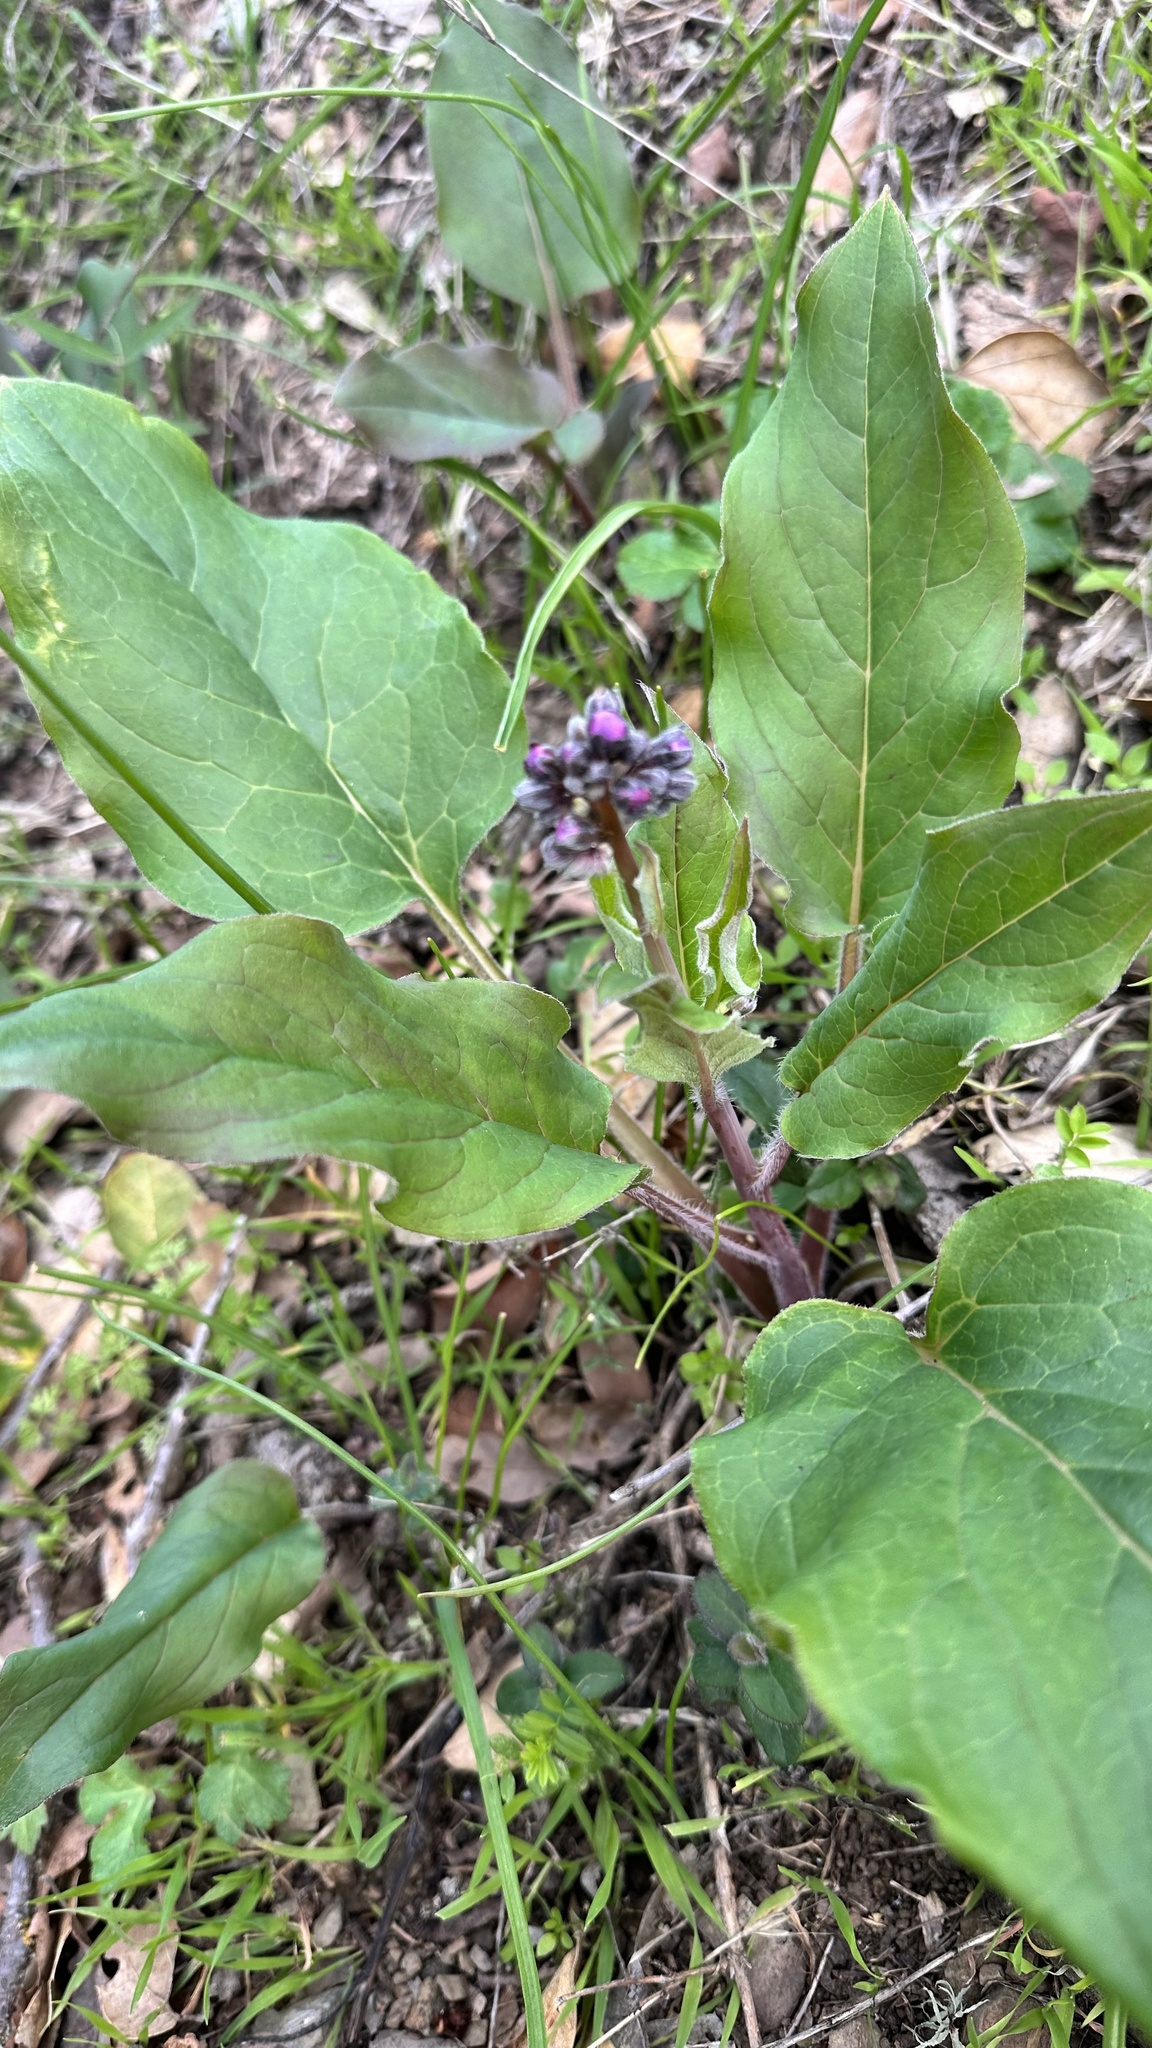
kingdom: Plantae
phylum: Tracheophyta
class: Magnoliopsida
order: Boraginales
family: Boraginaceae
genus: Adelinia
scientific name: Adelinia grande
